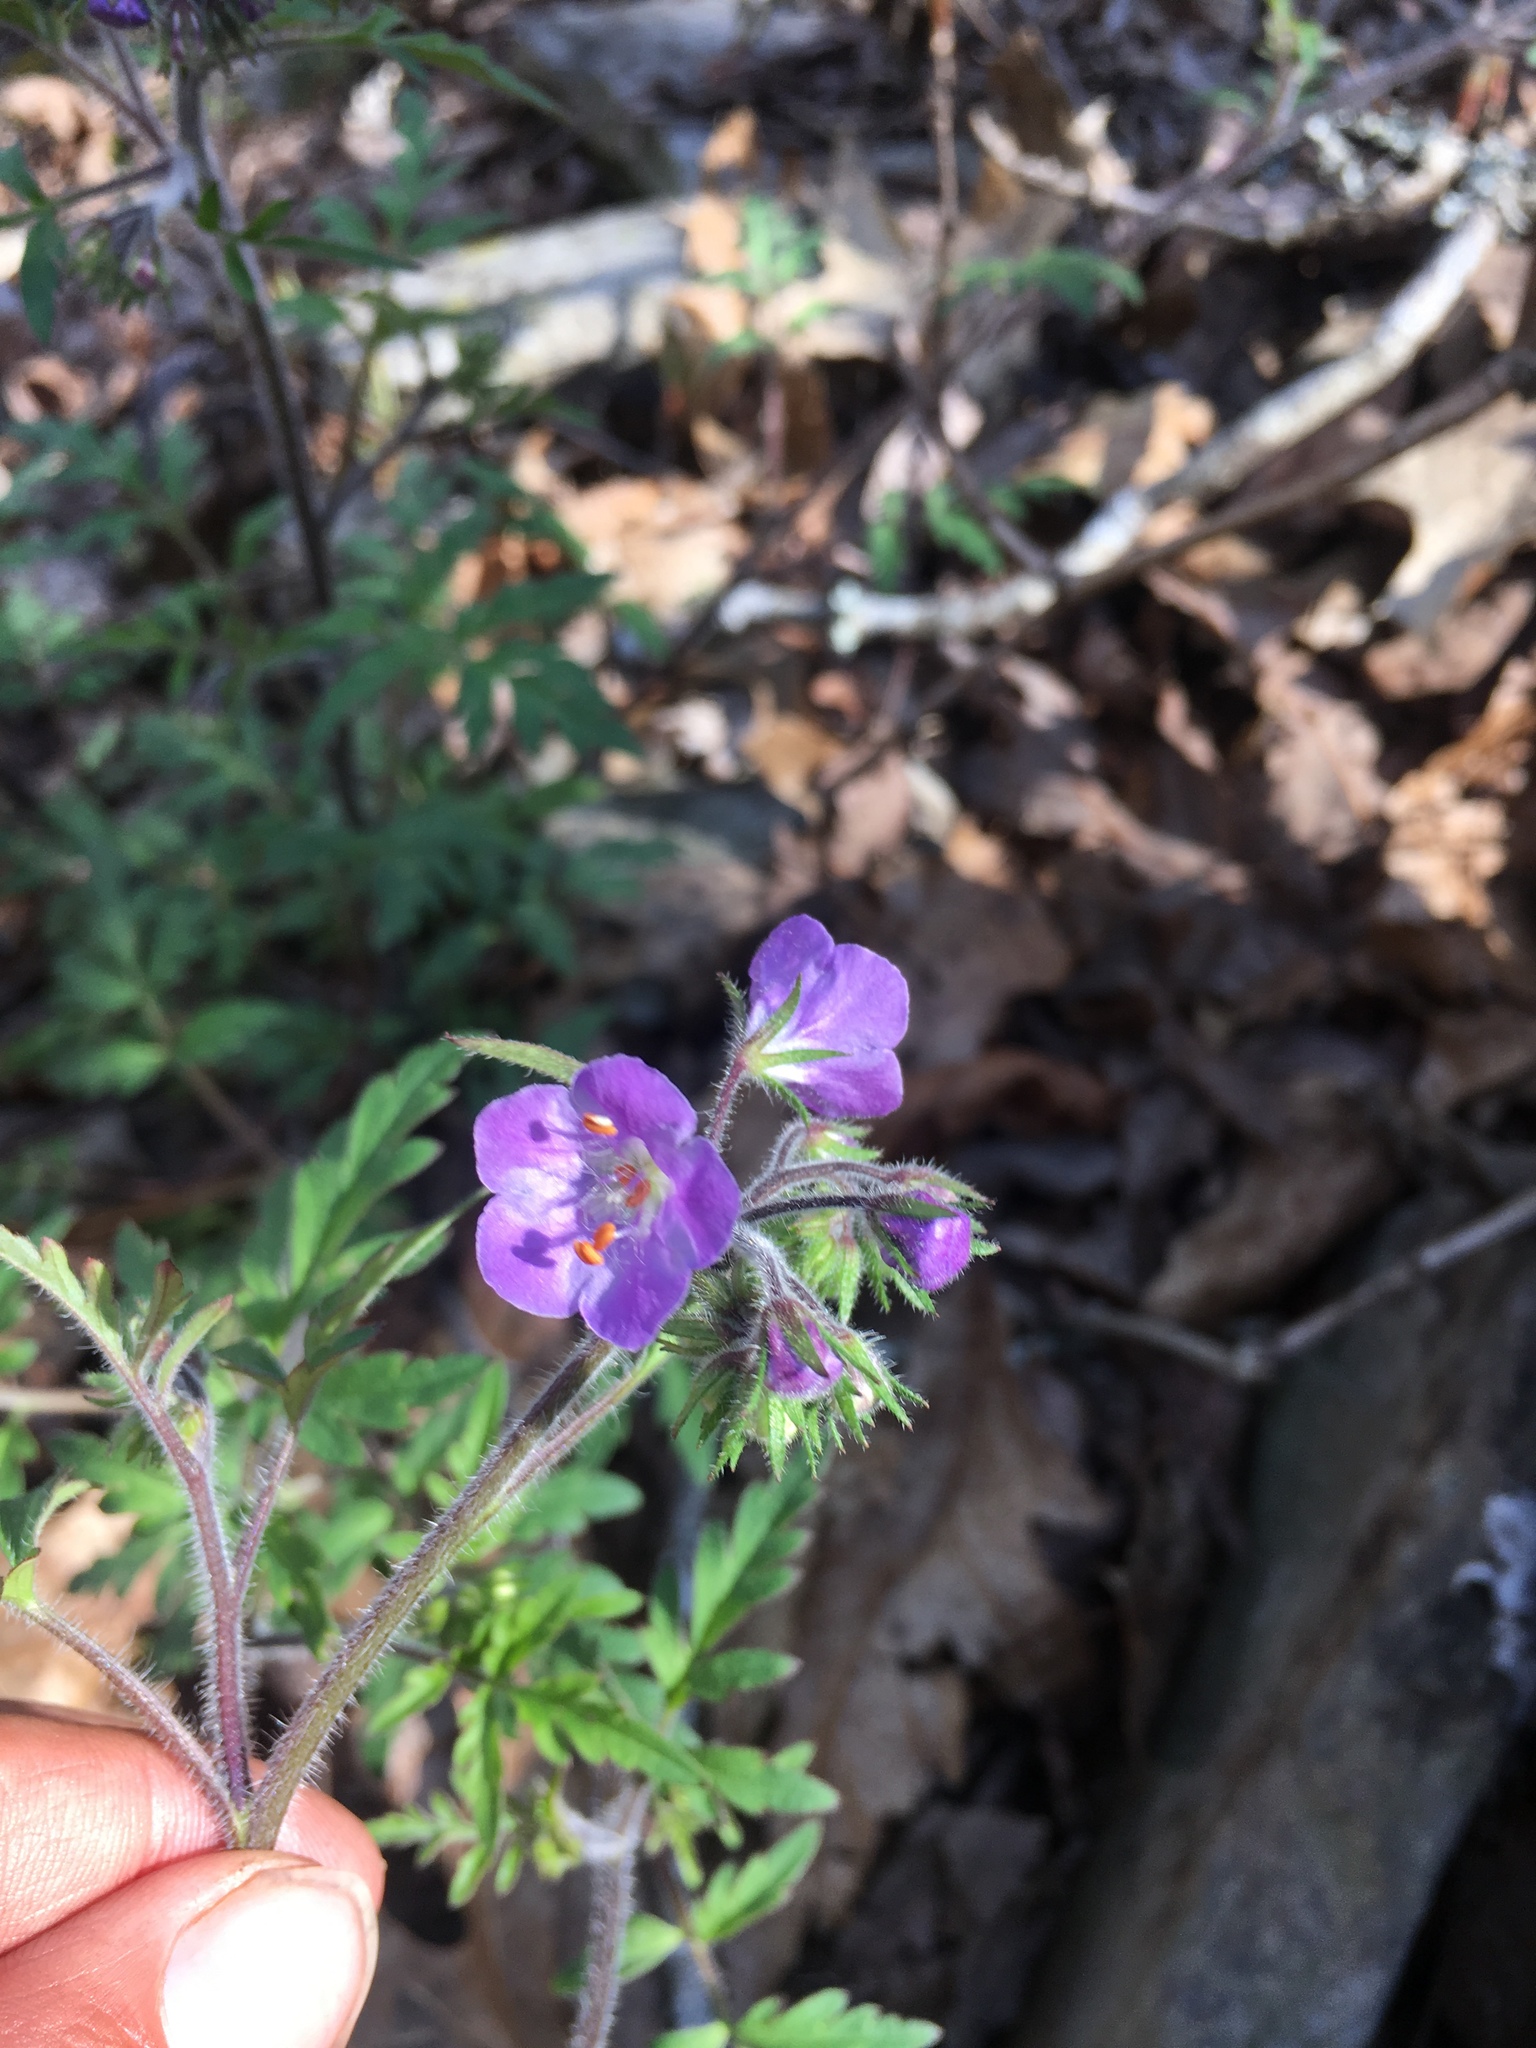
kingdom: Plantae
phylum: Tracheophyta
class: Magnoliopsida
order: Boraginales
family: Hydrophyllaceae
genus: Phacelia
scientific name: Phacelia bipinnatifida
